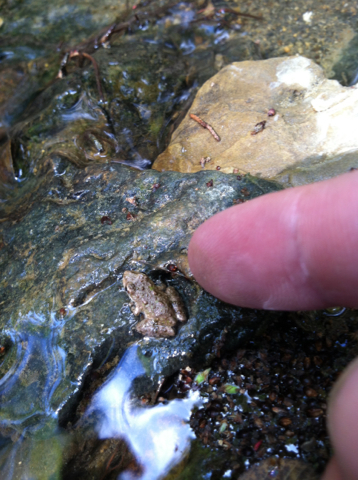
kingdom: Animalia
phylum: Chordata
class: Amphibia
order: Anura
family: Hylidae
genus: Acris
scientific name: Acris blanchardi
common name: Blanchard's cricket frog
